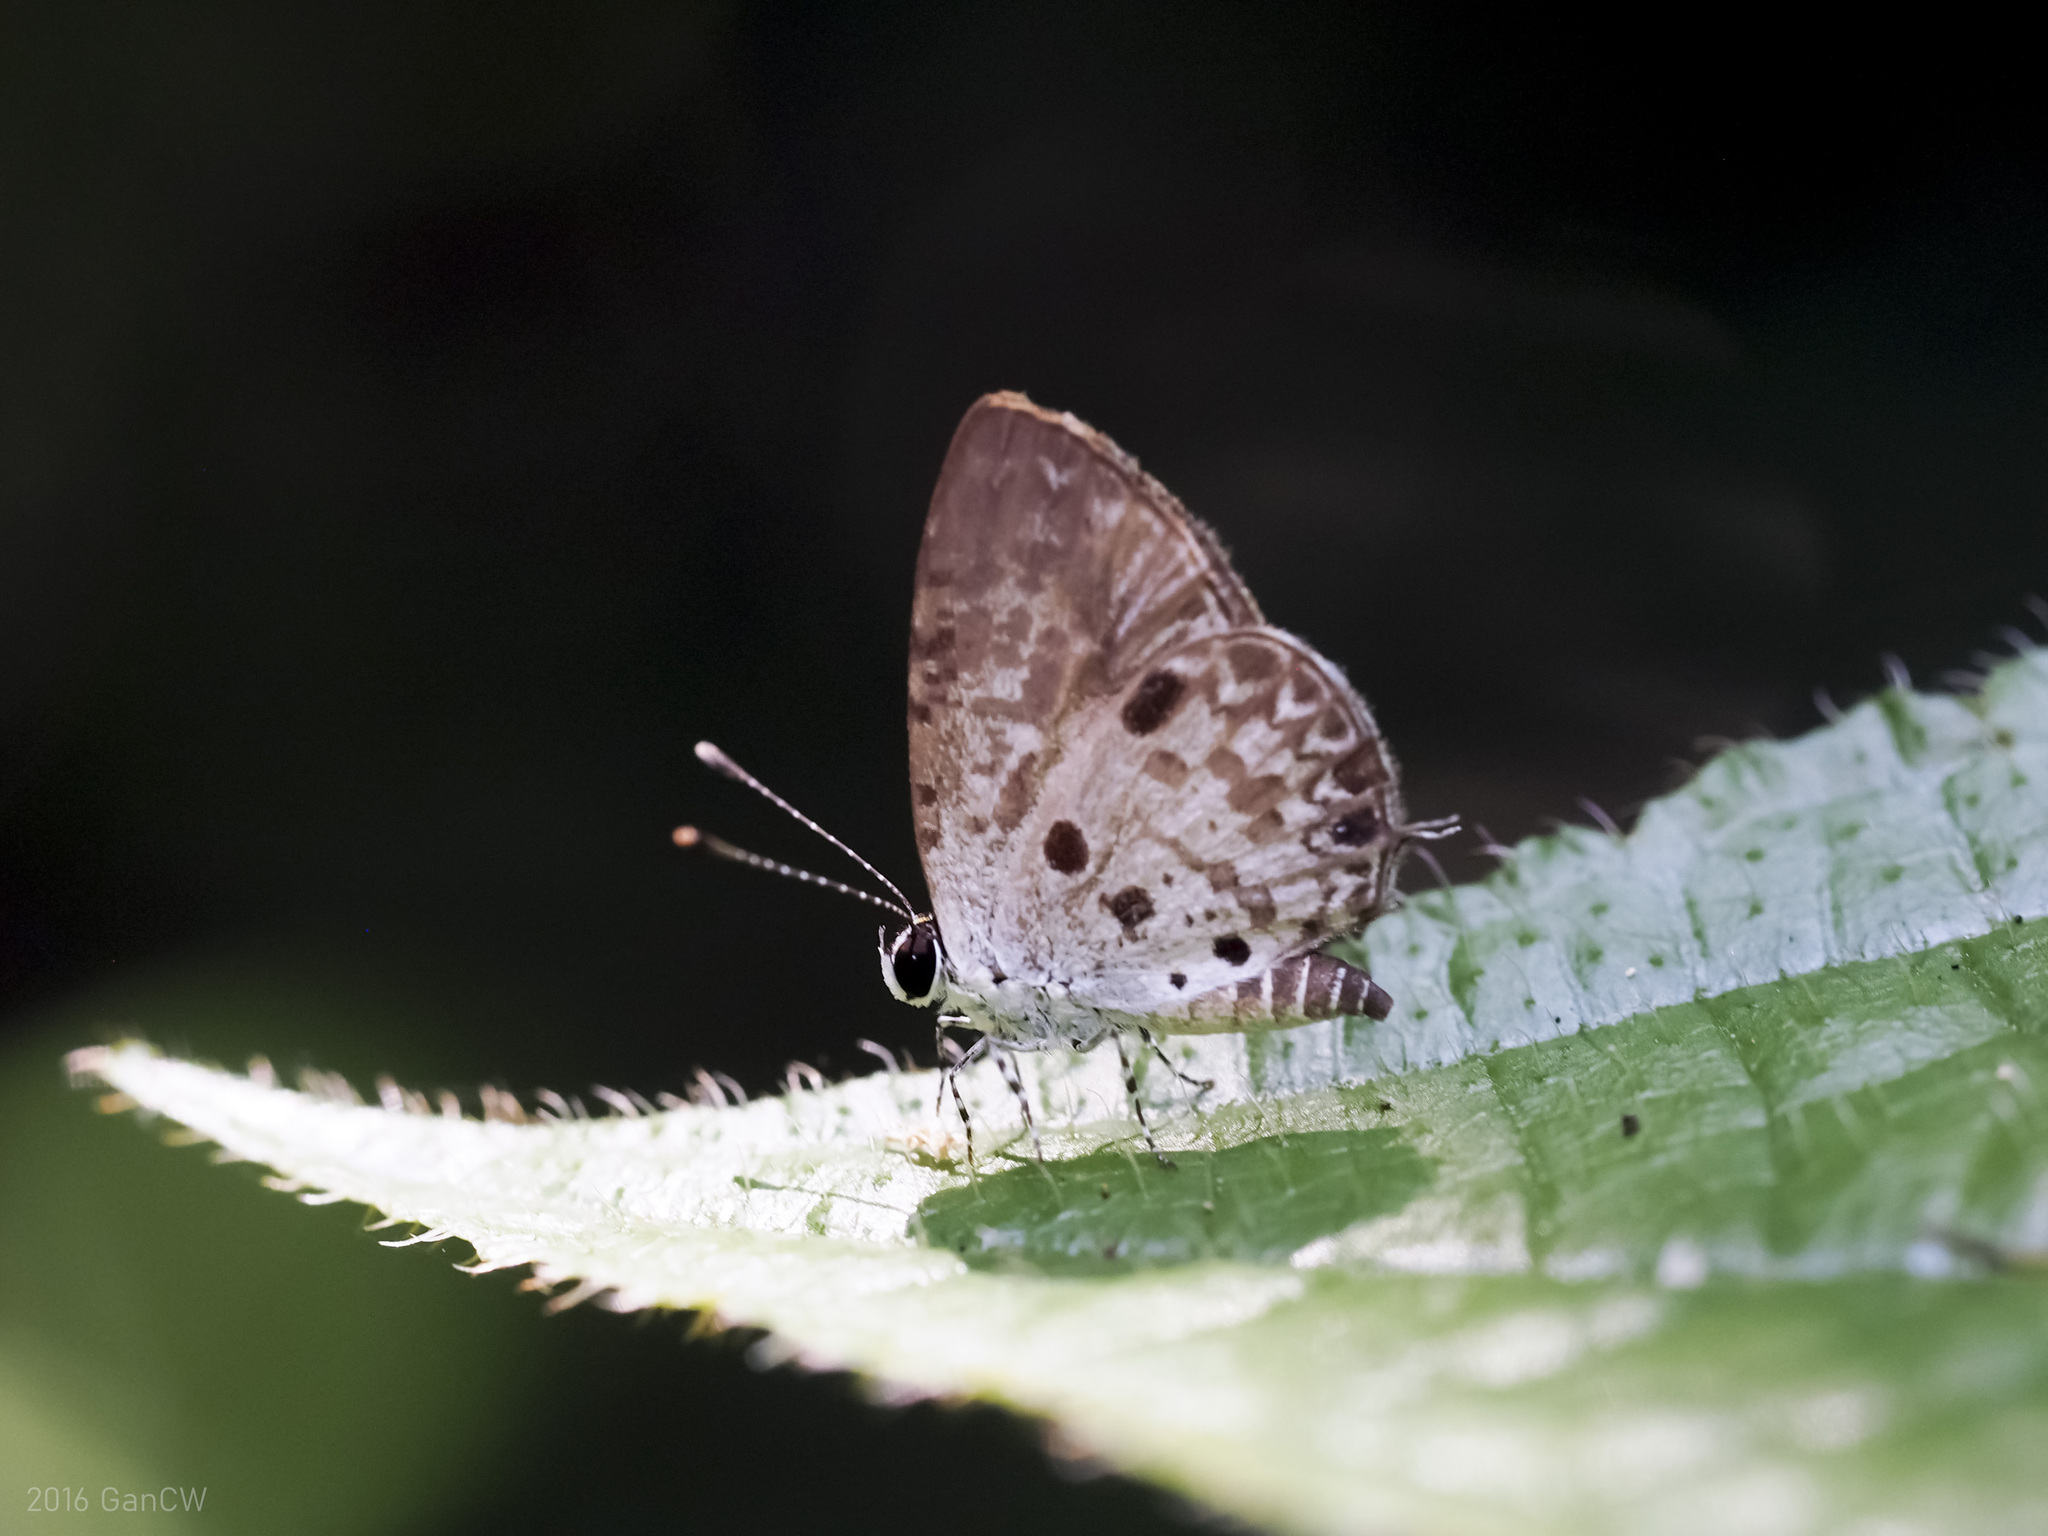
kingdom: Animalia
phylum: Arthropoda
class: Insecta
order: Lepidoptera
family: Lycaenidae
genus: Megisba
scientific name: Megisba malaya
